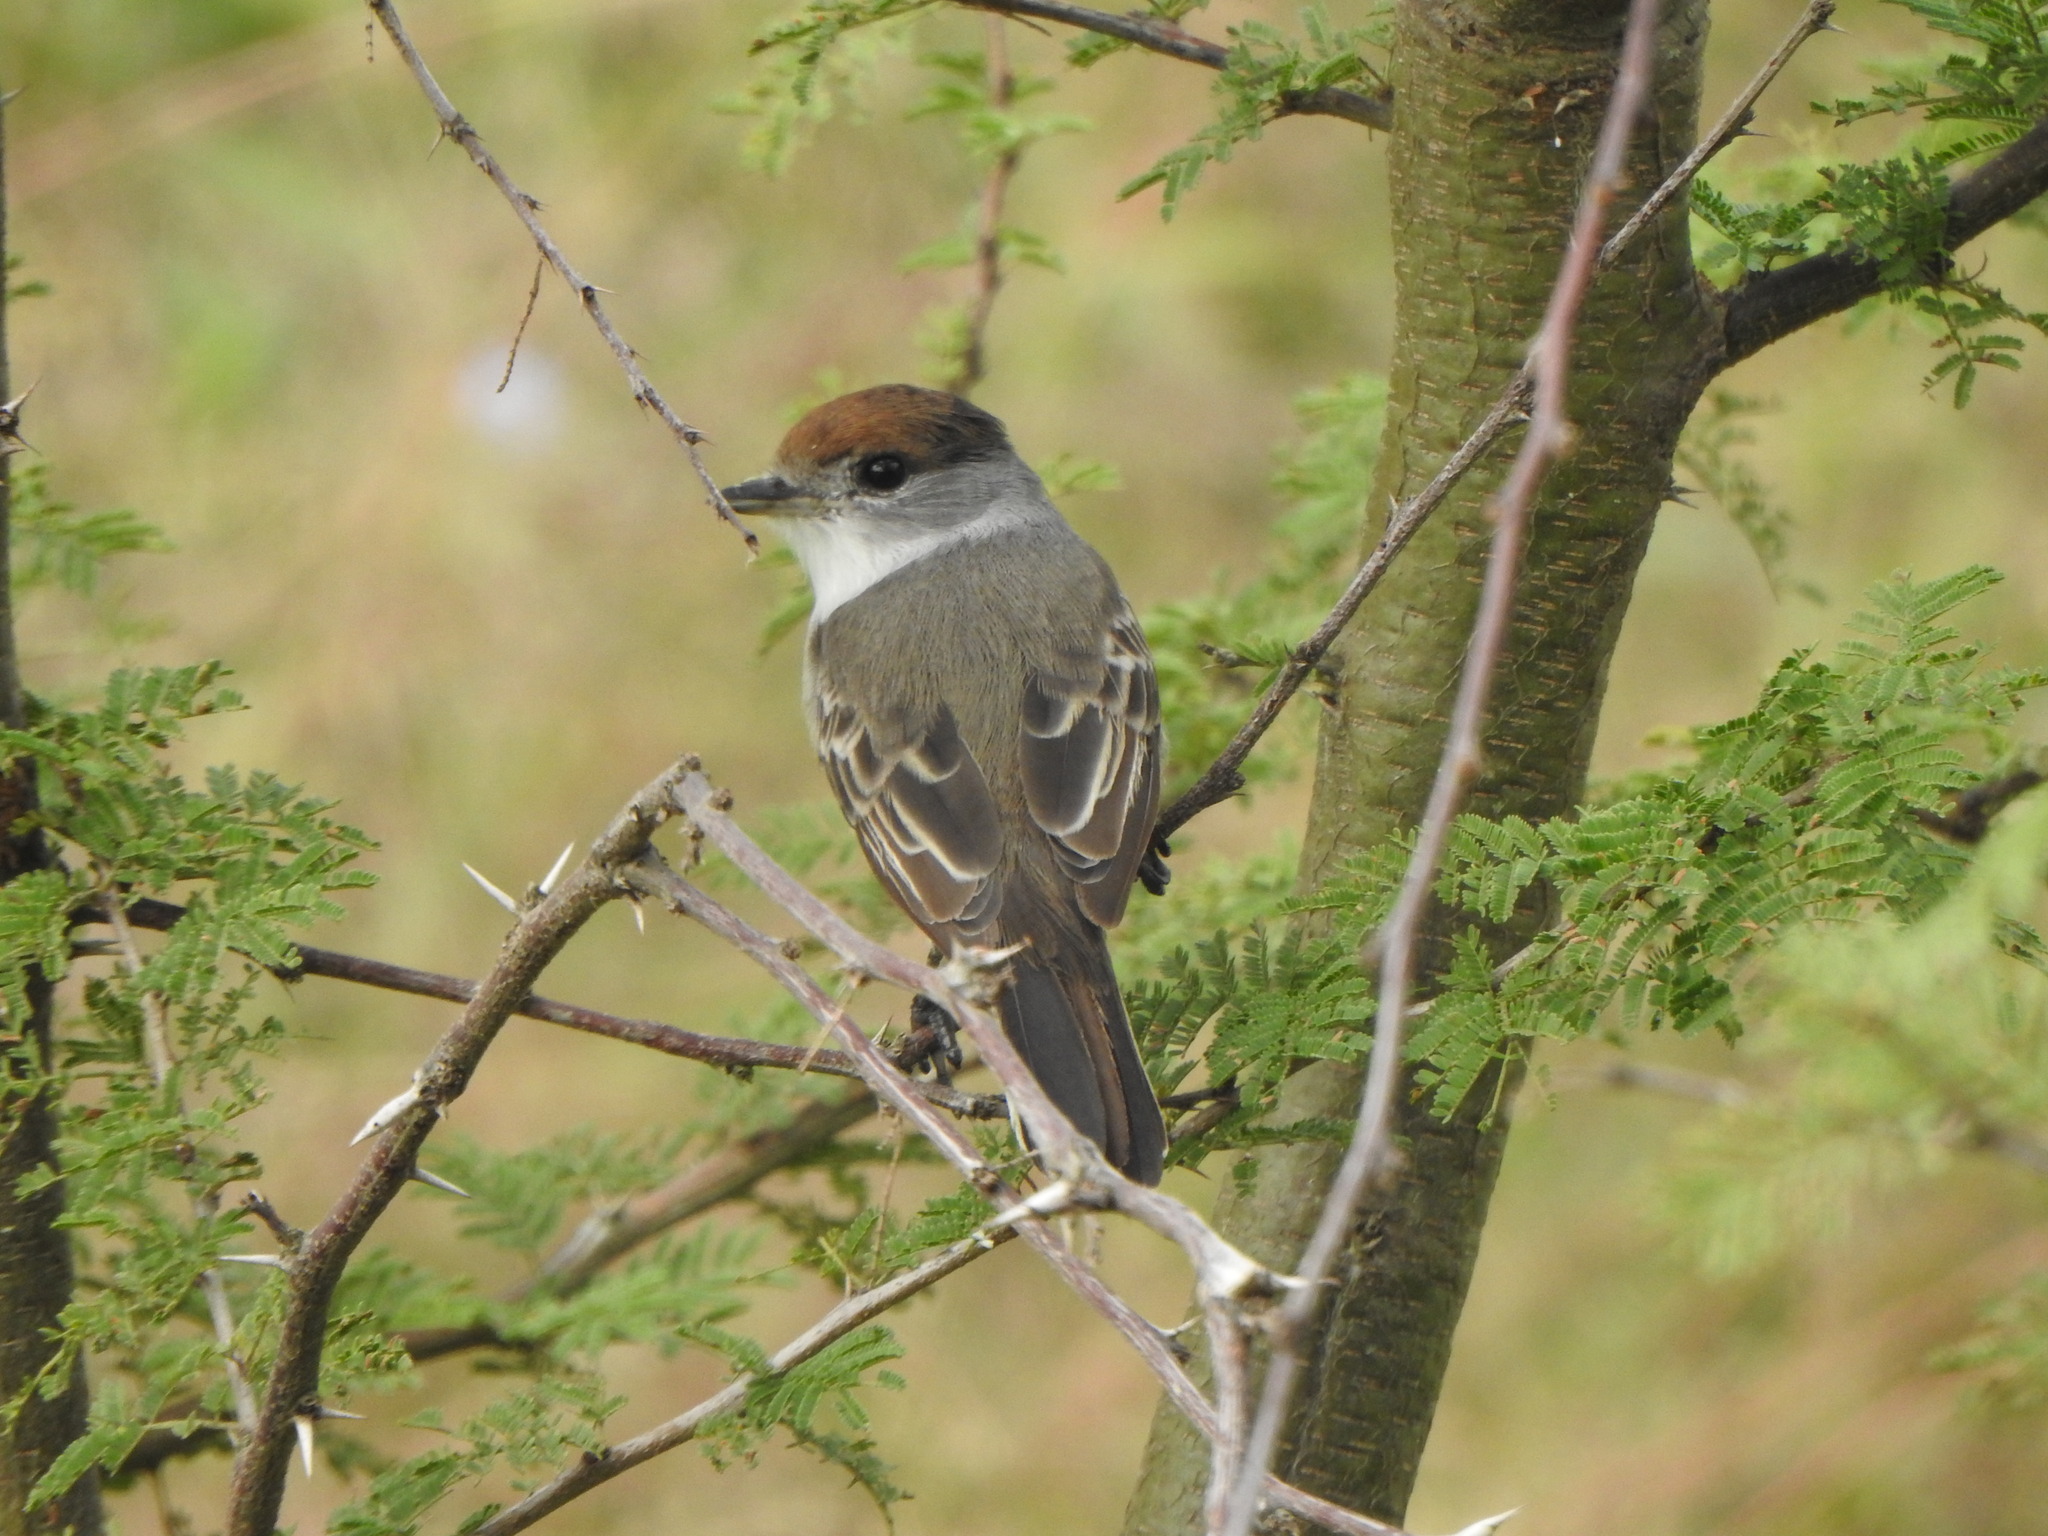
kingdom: Animalia
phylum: Chordata
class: Aves
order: Passeriformes
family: Cotingidae
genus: Xenopsaris
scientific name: Xenopsaris albinucha
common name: White-naped xenopsaris
